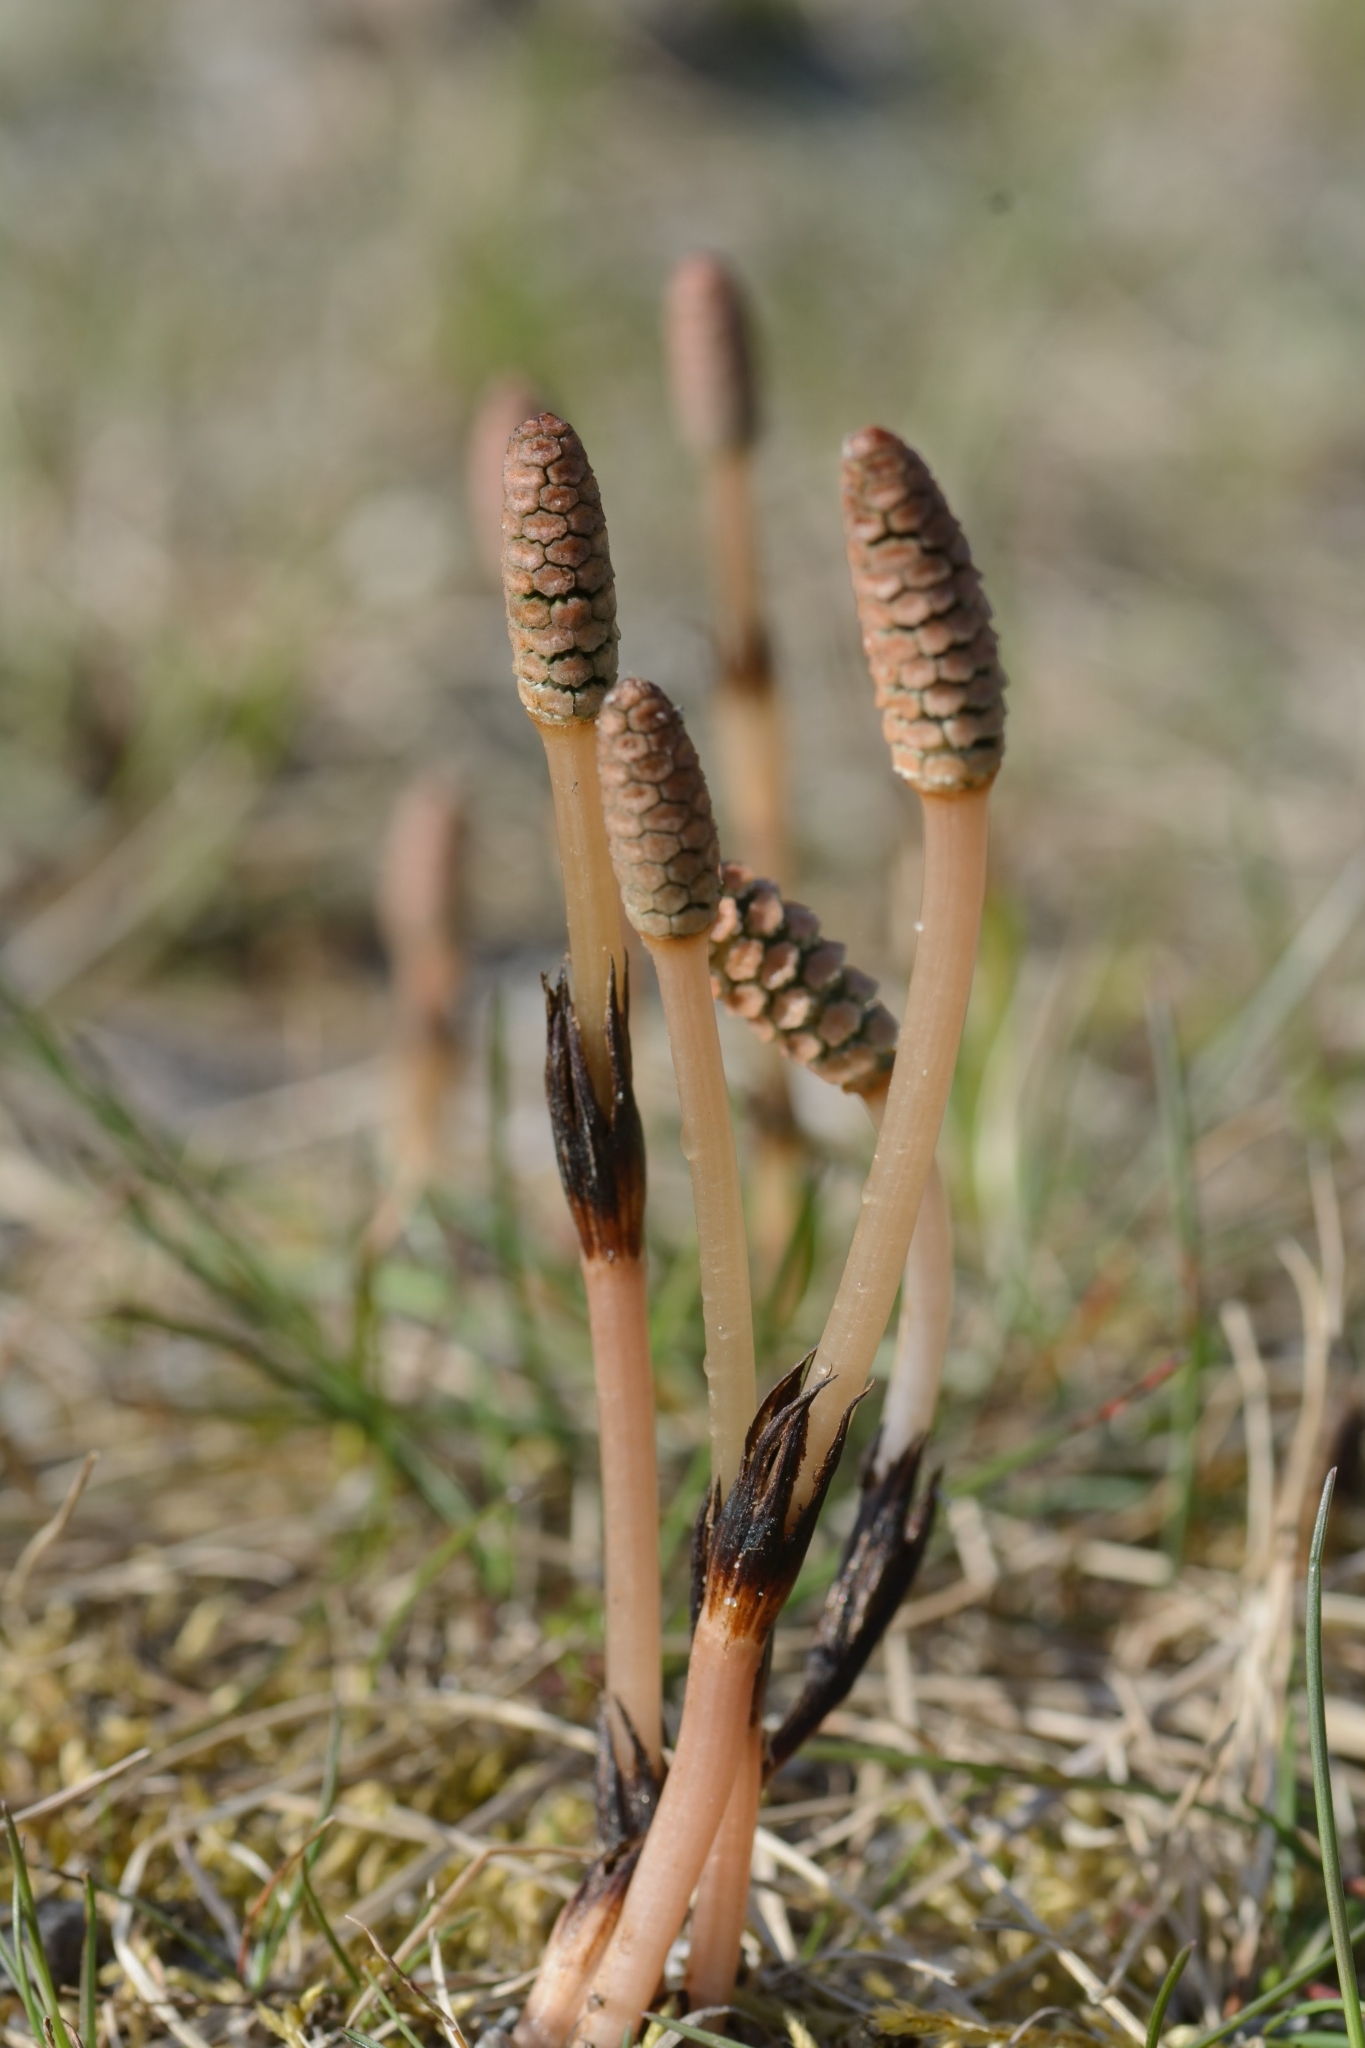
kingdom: Plantae
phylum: Tracheophyta
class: Polypodiopsida
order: Equisetales
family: Equisetaceae
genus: Equisetum
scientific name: Equisetum arvense
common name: Field horsetail
